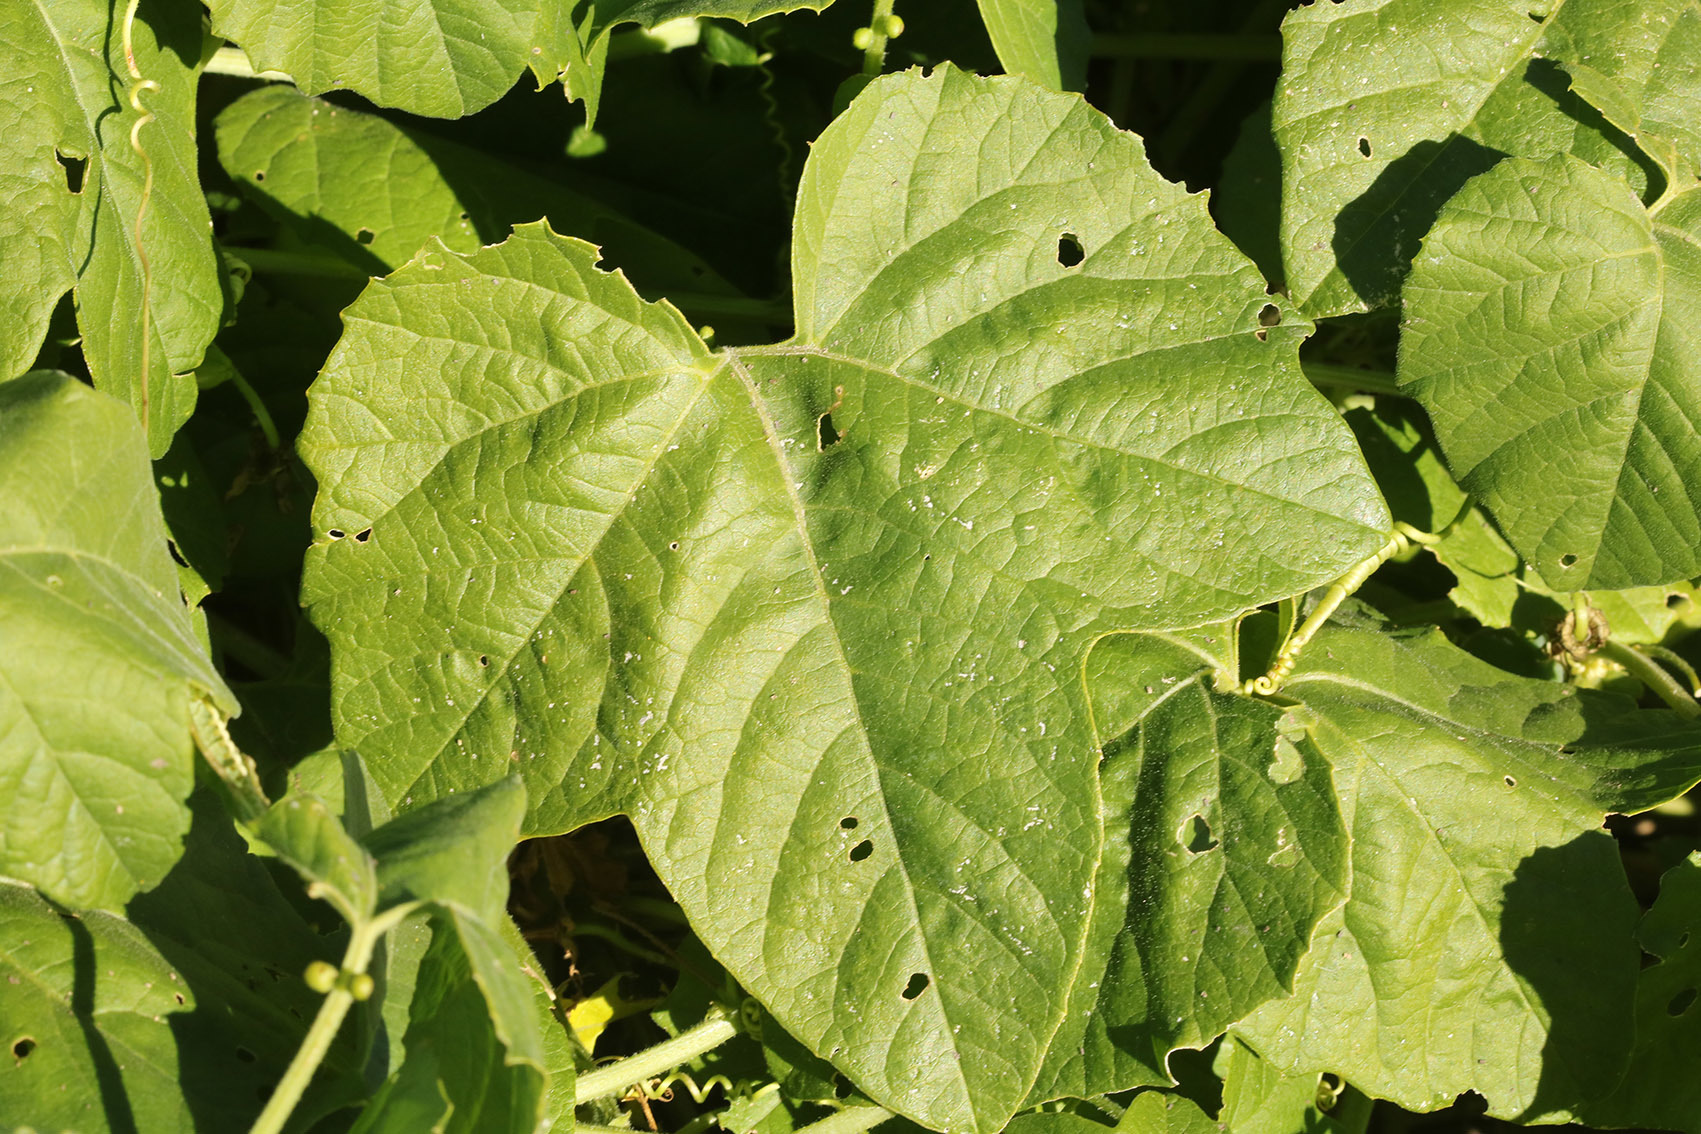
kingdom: Plantae
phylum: Tracheophyta
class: Magnoliopsida
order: Malpighiales
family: Passifloraceae
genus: Passiflora
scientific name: Passiflora morifolia
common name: Woodland passionflower
